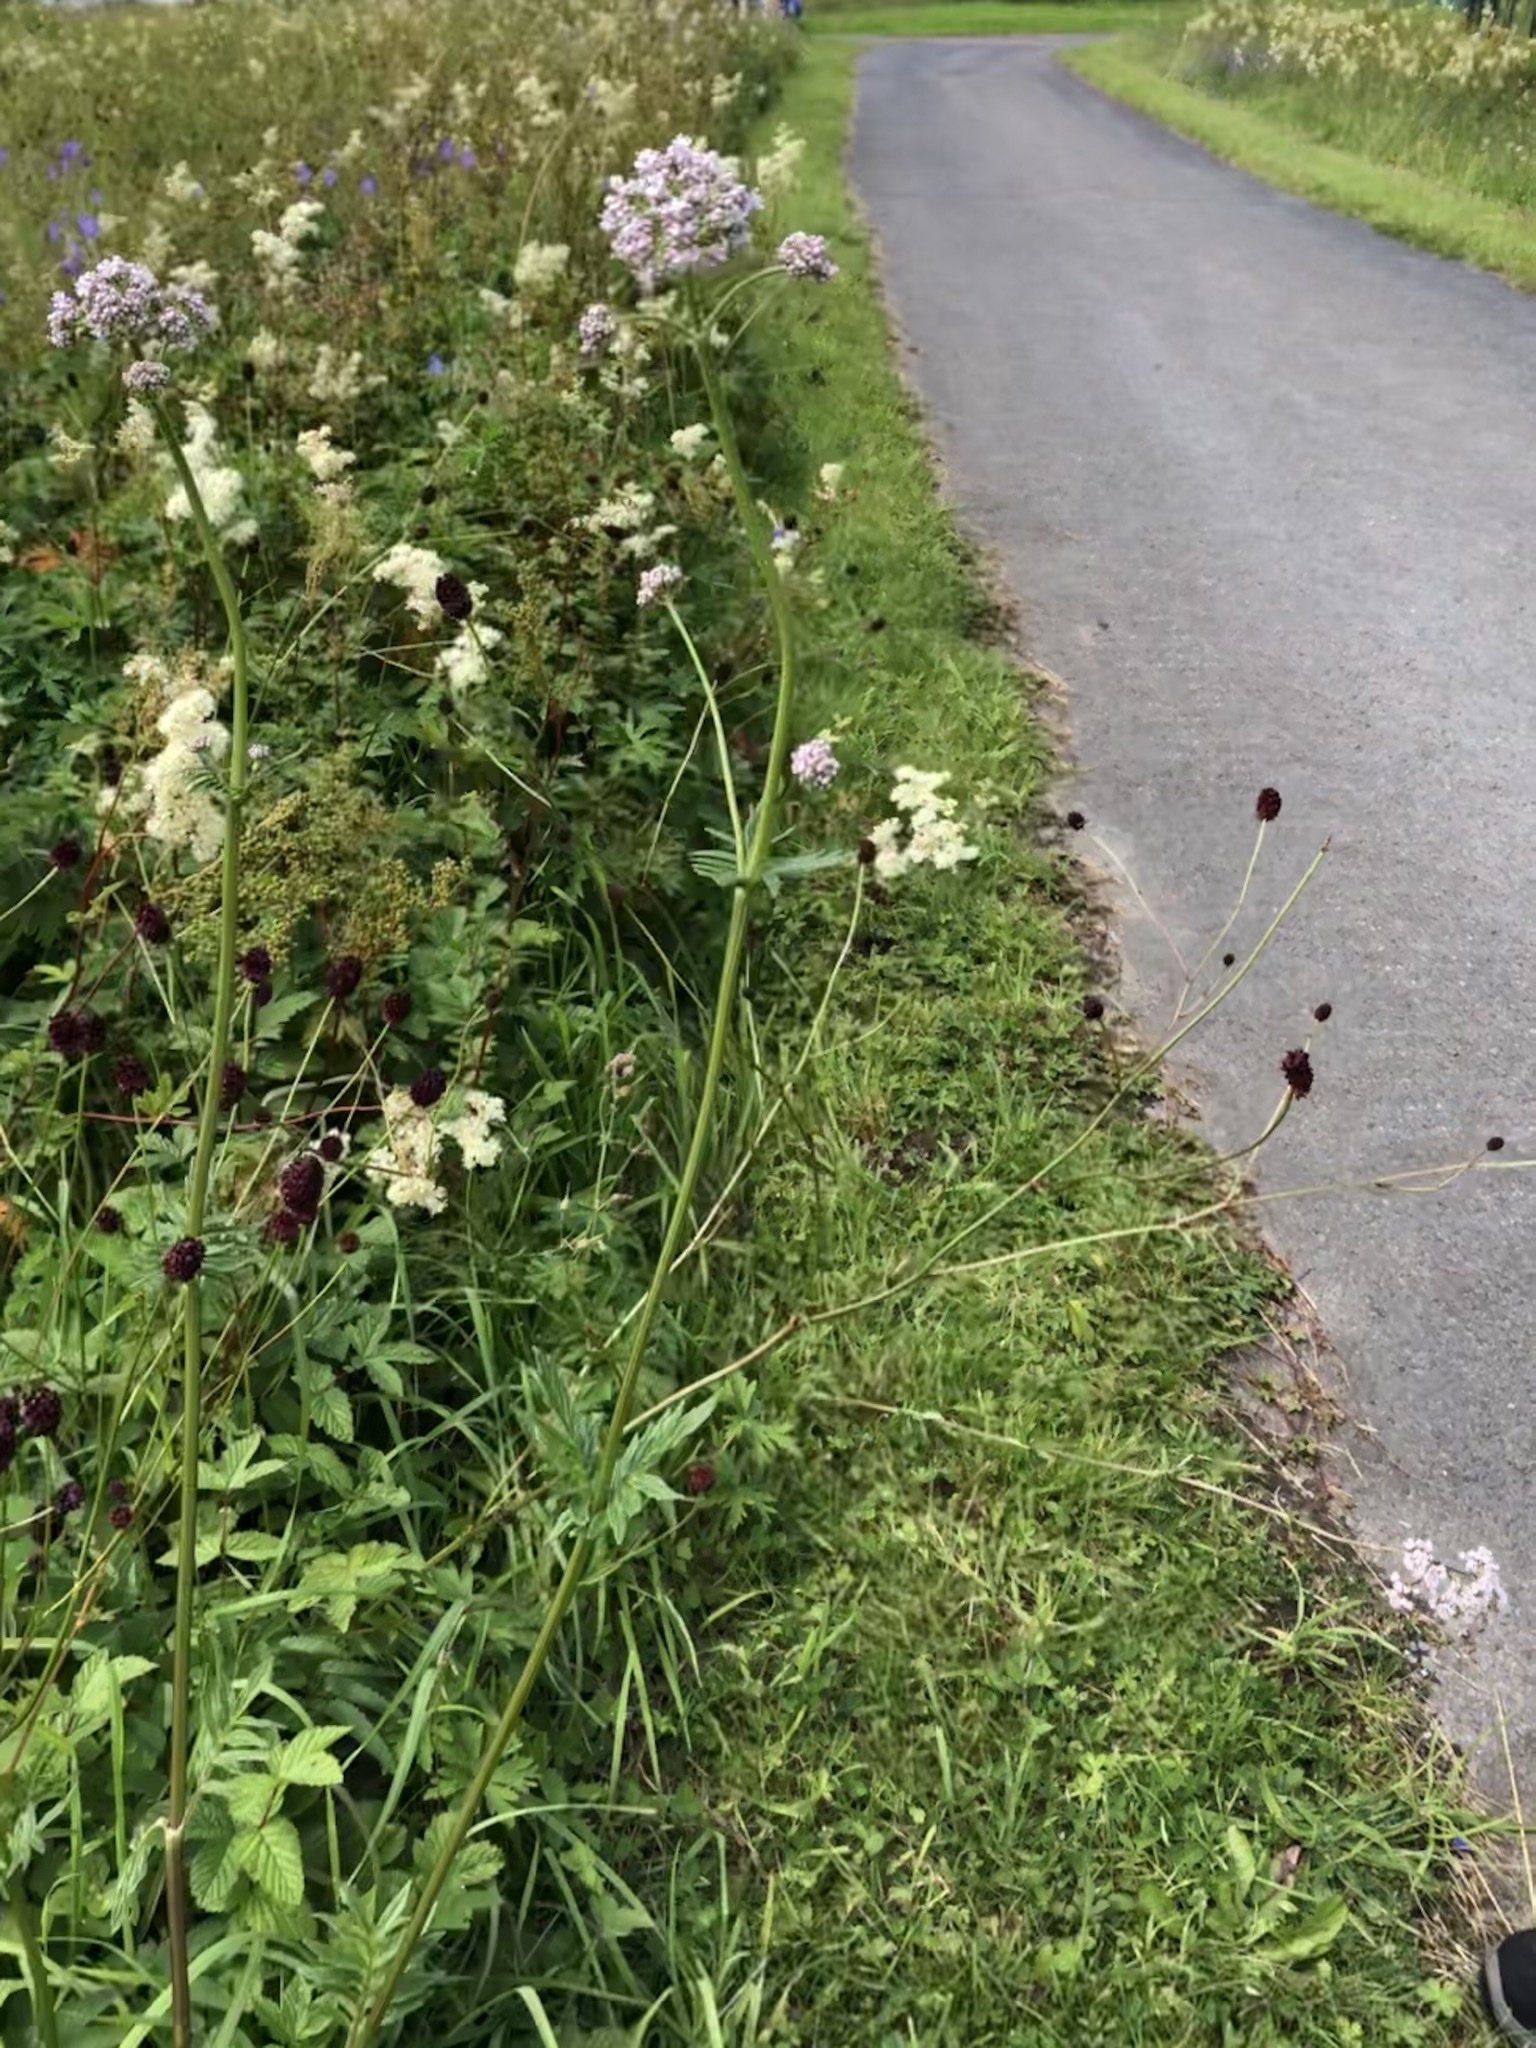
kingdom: Plantae
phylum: Tracheophyta
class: Magnoliopsida
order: Dipsacales
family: Caprifoliaceae
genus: Valeriana
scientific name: Valeriana officinalis
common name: Common valerian
